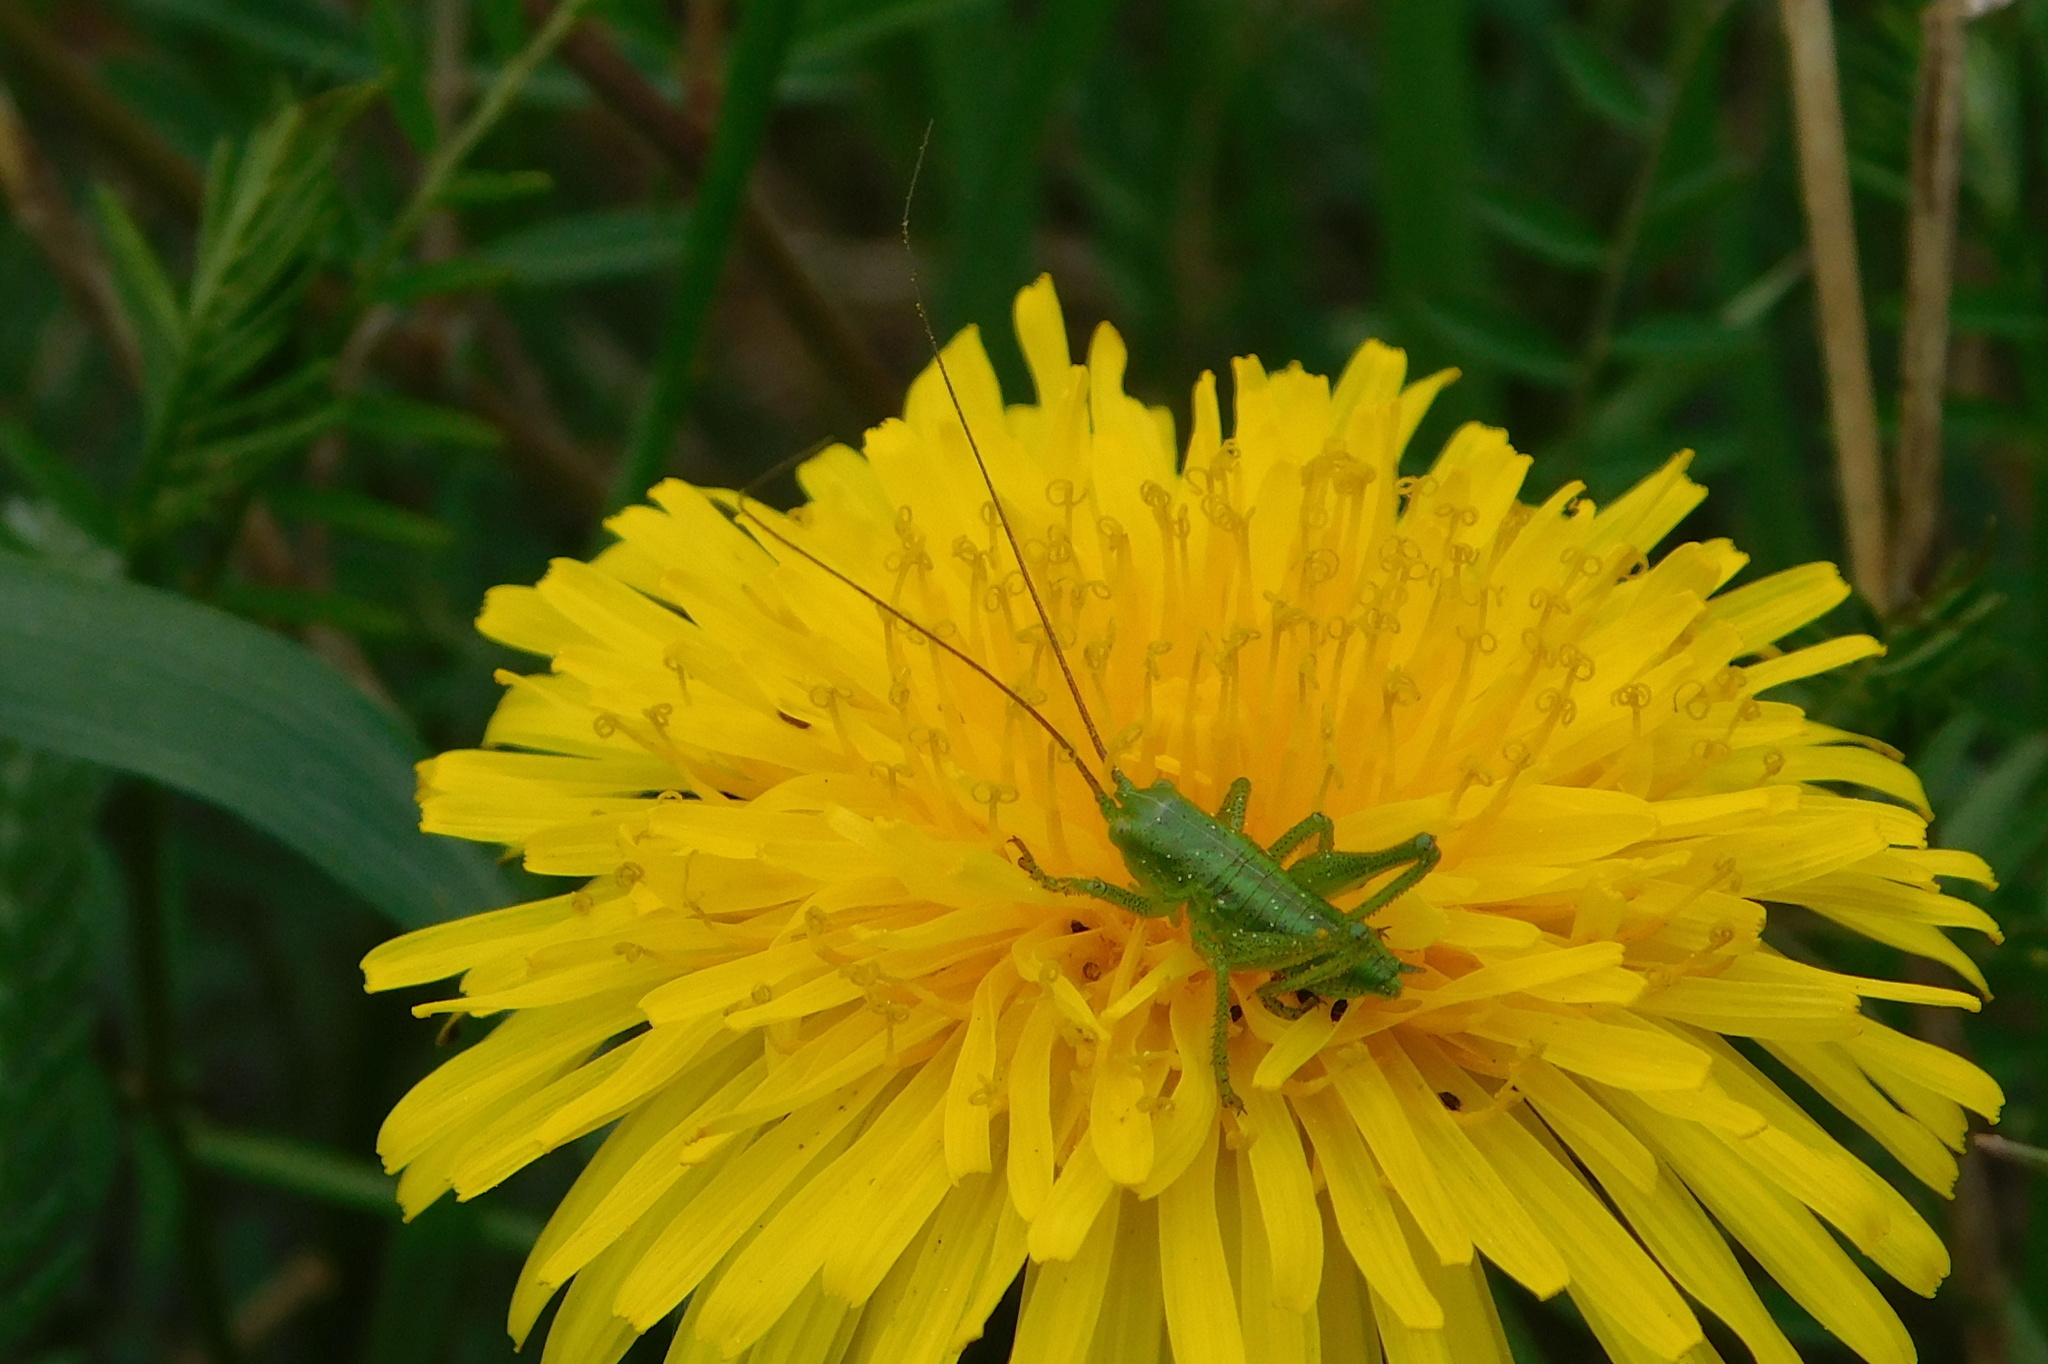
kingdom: Animalia
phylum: Arthropoda
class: Insecta
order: Orthoptera
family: Tettigoniidae
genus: Tettigonia
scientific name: Tettigonia viridissima
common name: Great green bush-cricket
